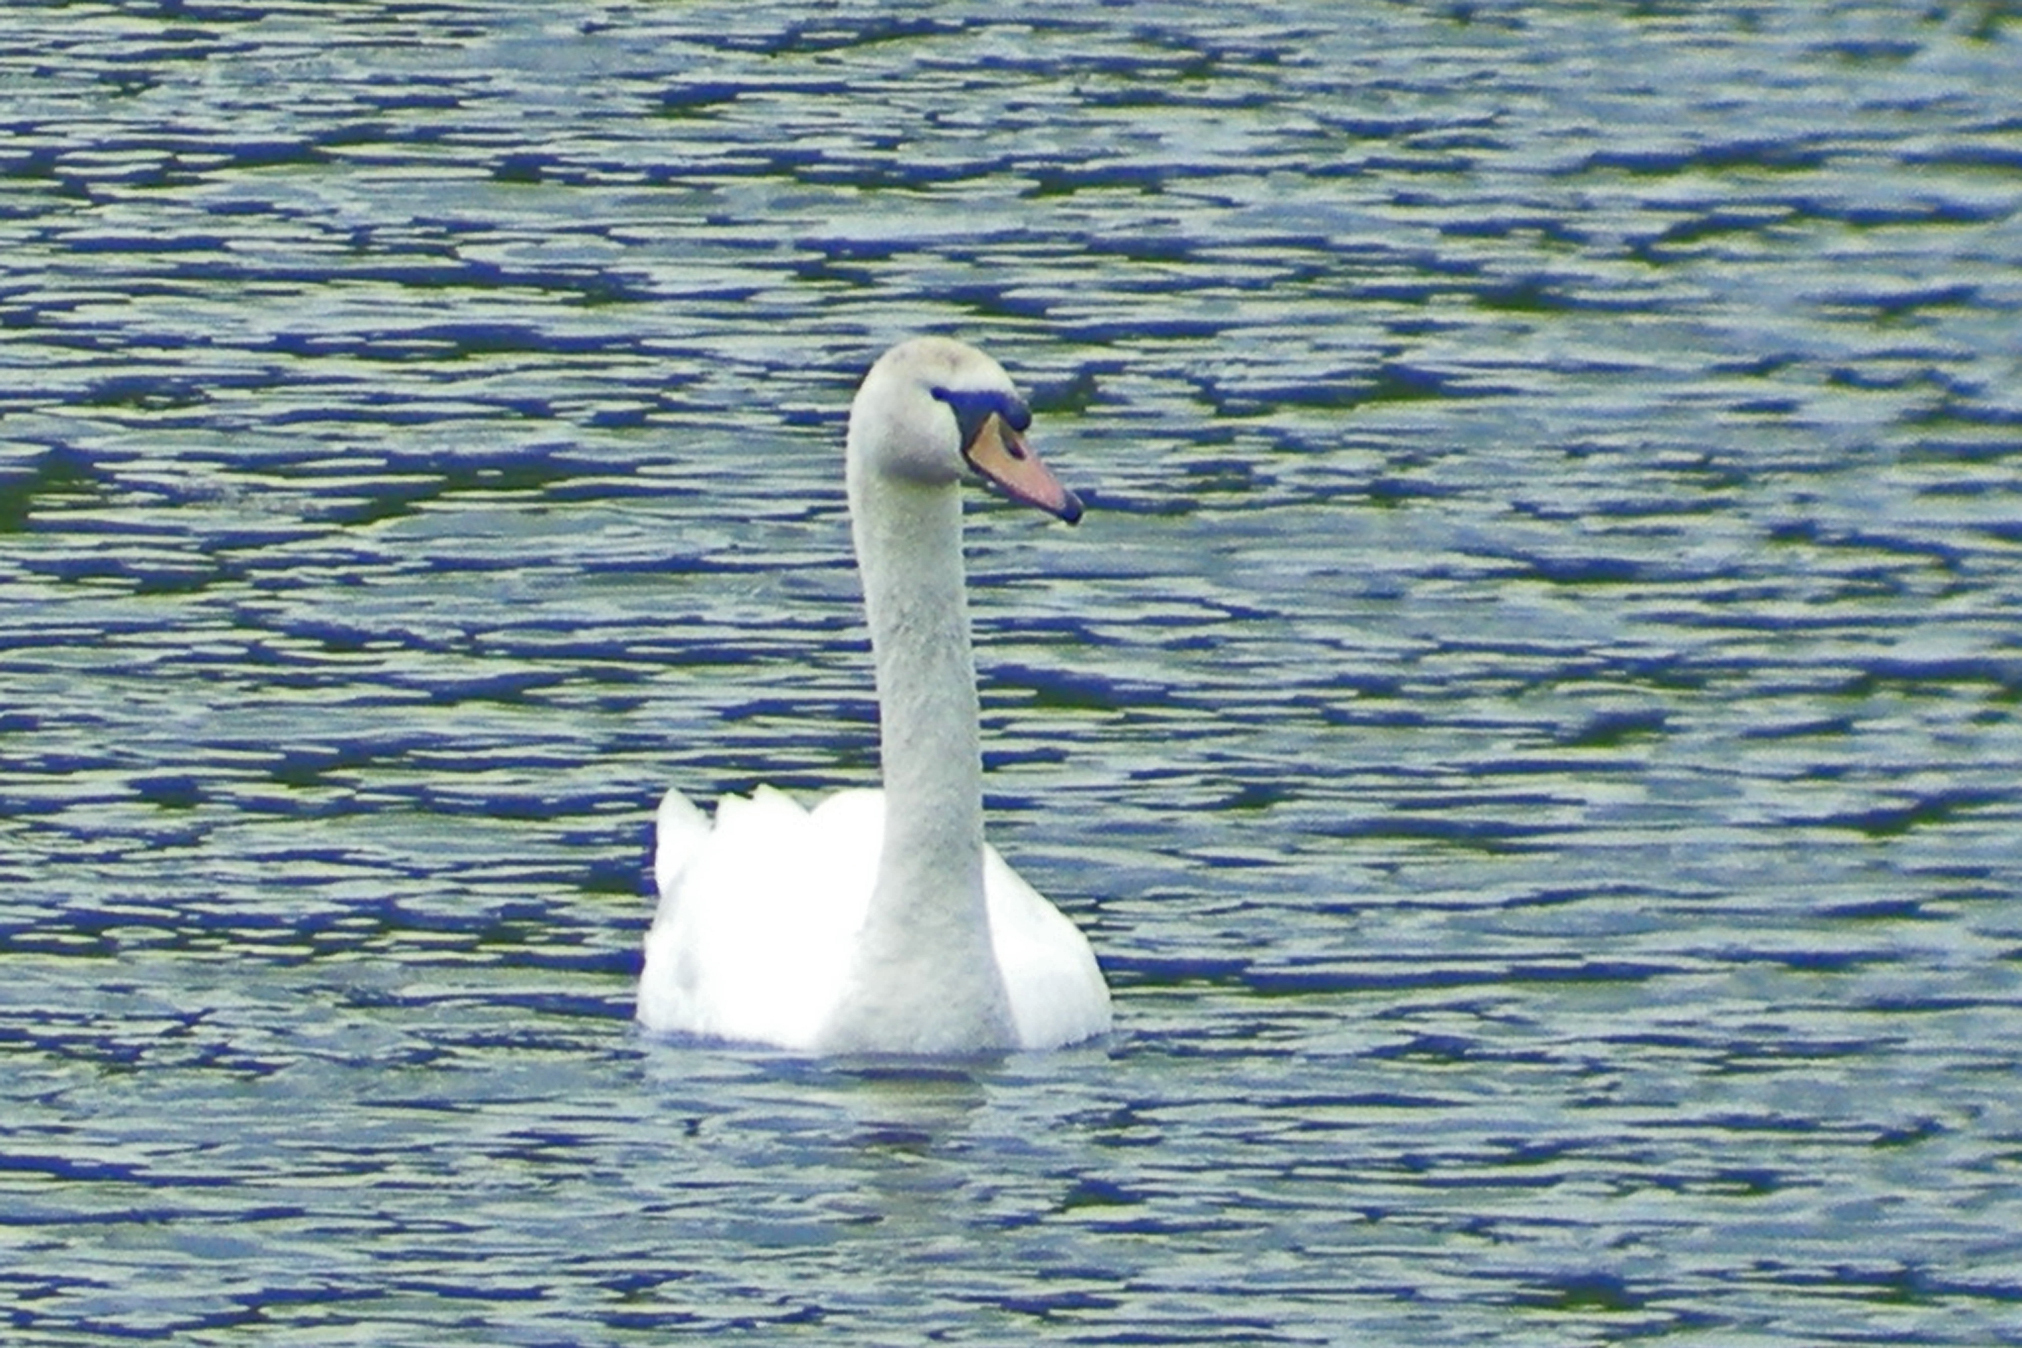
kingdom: Animalia
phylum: Chordata
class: Aves
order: Anseriformes
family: Anatidae
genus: Cygnus
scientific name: Cygnus olor
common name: Mute swan
